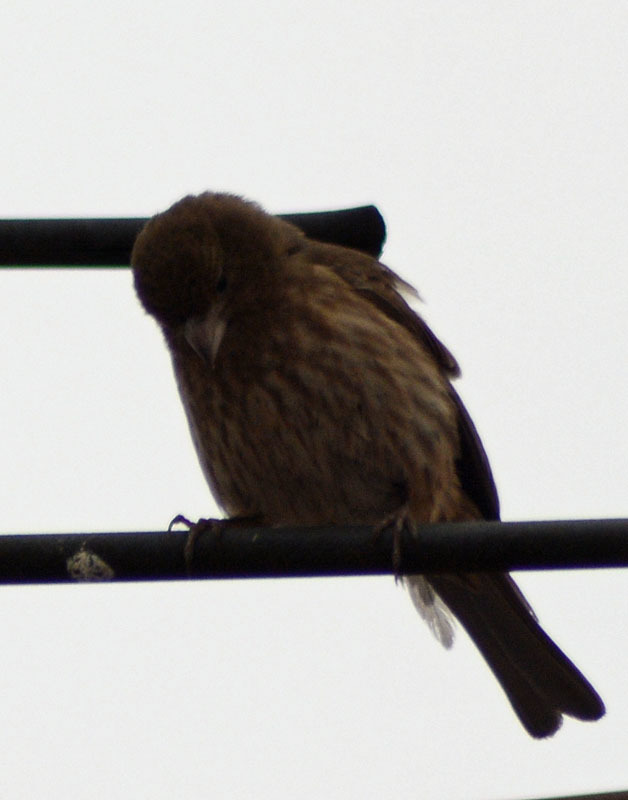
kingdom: Animalia
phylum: Chordata
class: Aves
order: Passeriformes
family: Fringillidae
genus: Haemorhous
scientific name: Haemorhous mexicanus
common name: House finch
